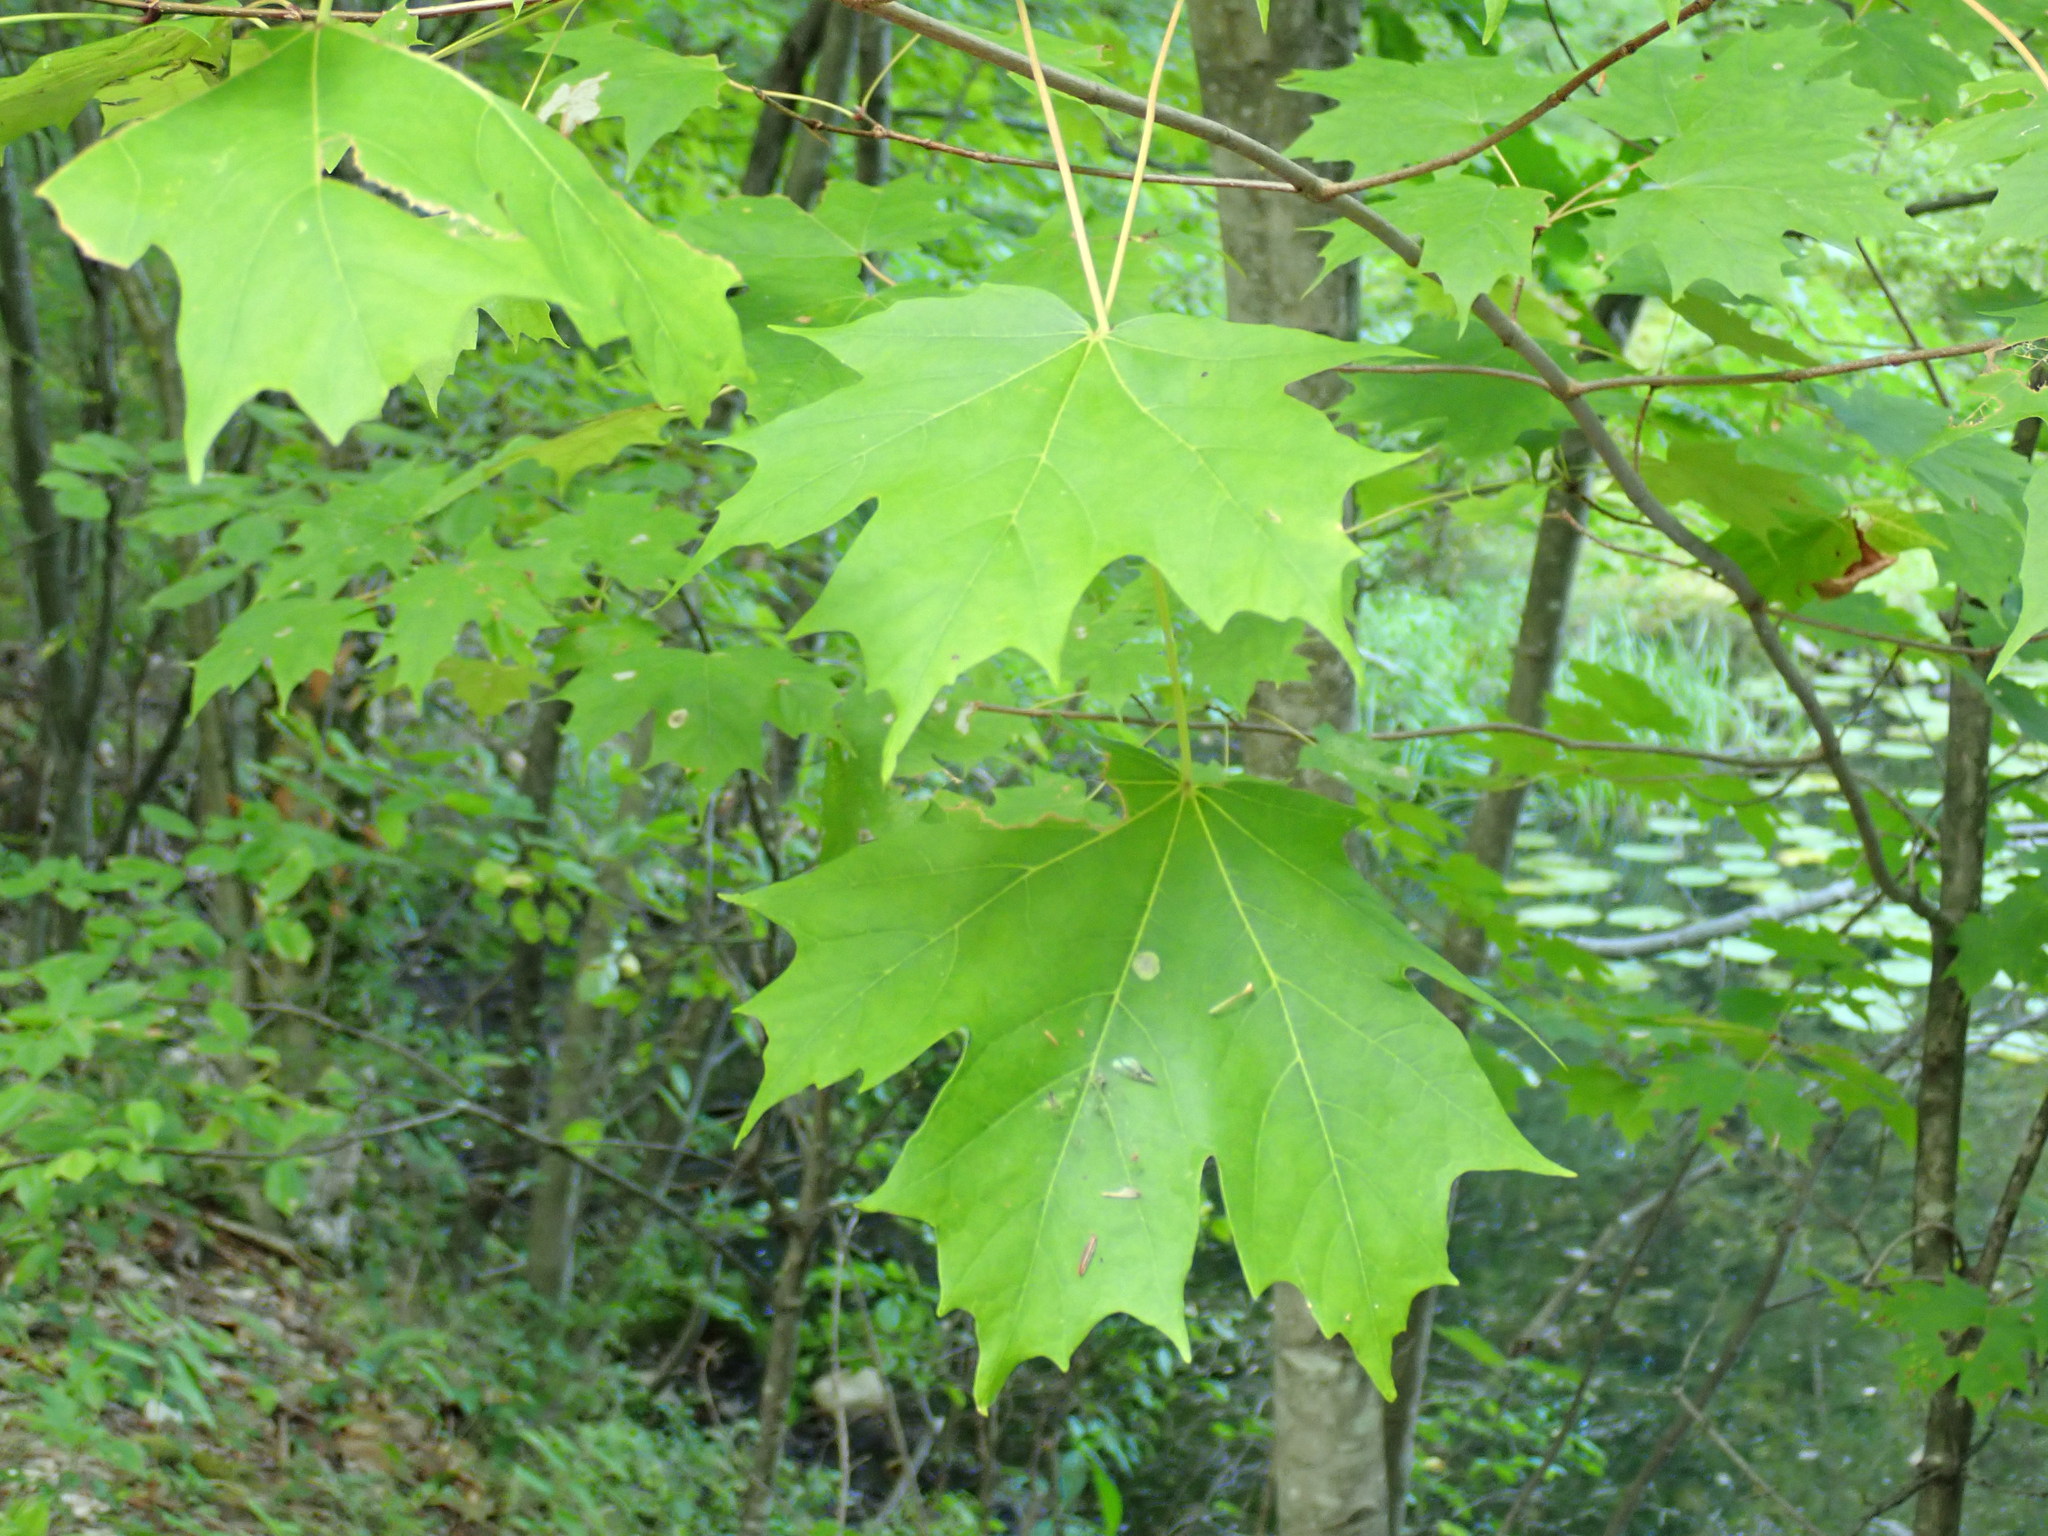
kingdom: Plantae
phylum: Tracheophyta
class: Magnoliopsida
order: Sapindales
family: Sapindaceae
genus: Acer
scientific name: Acer saccharum
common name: Sugar maple
